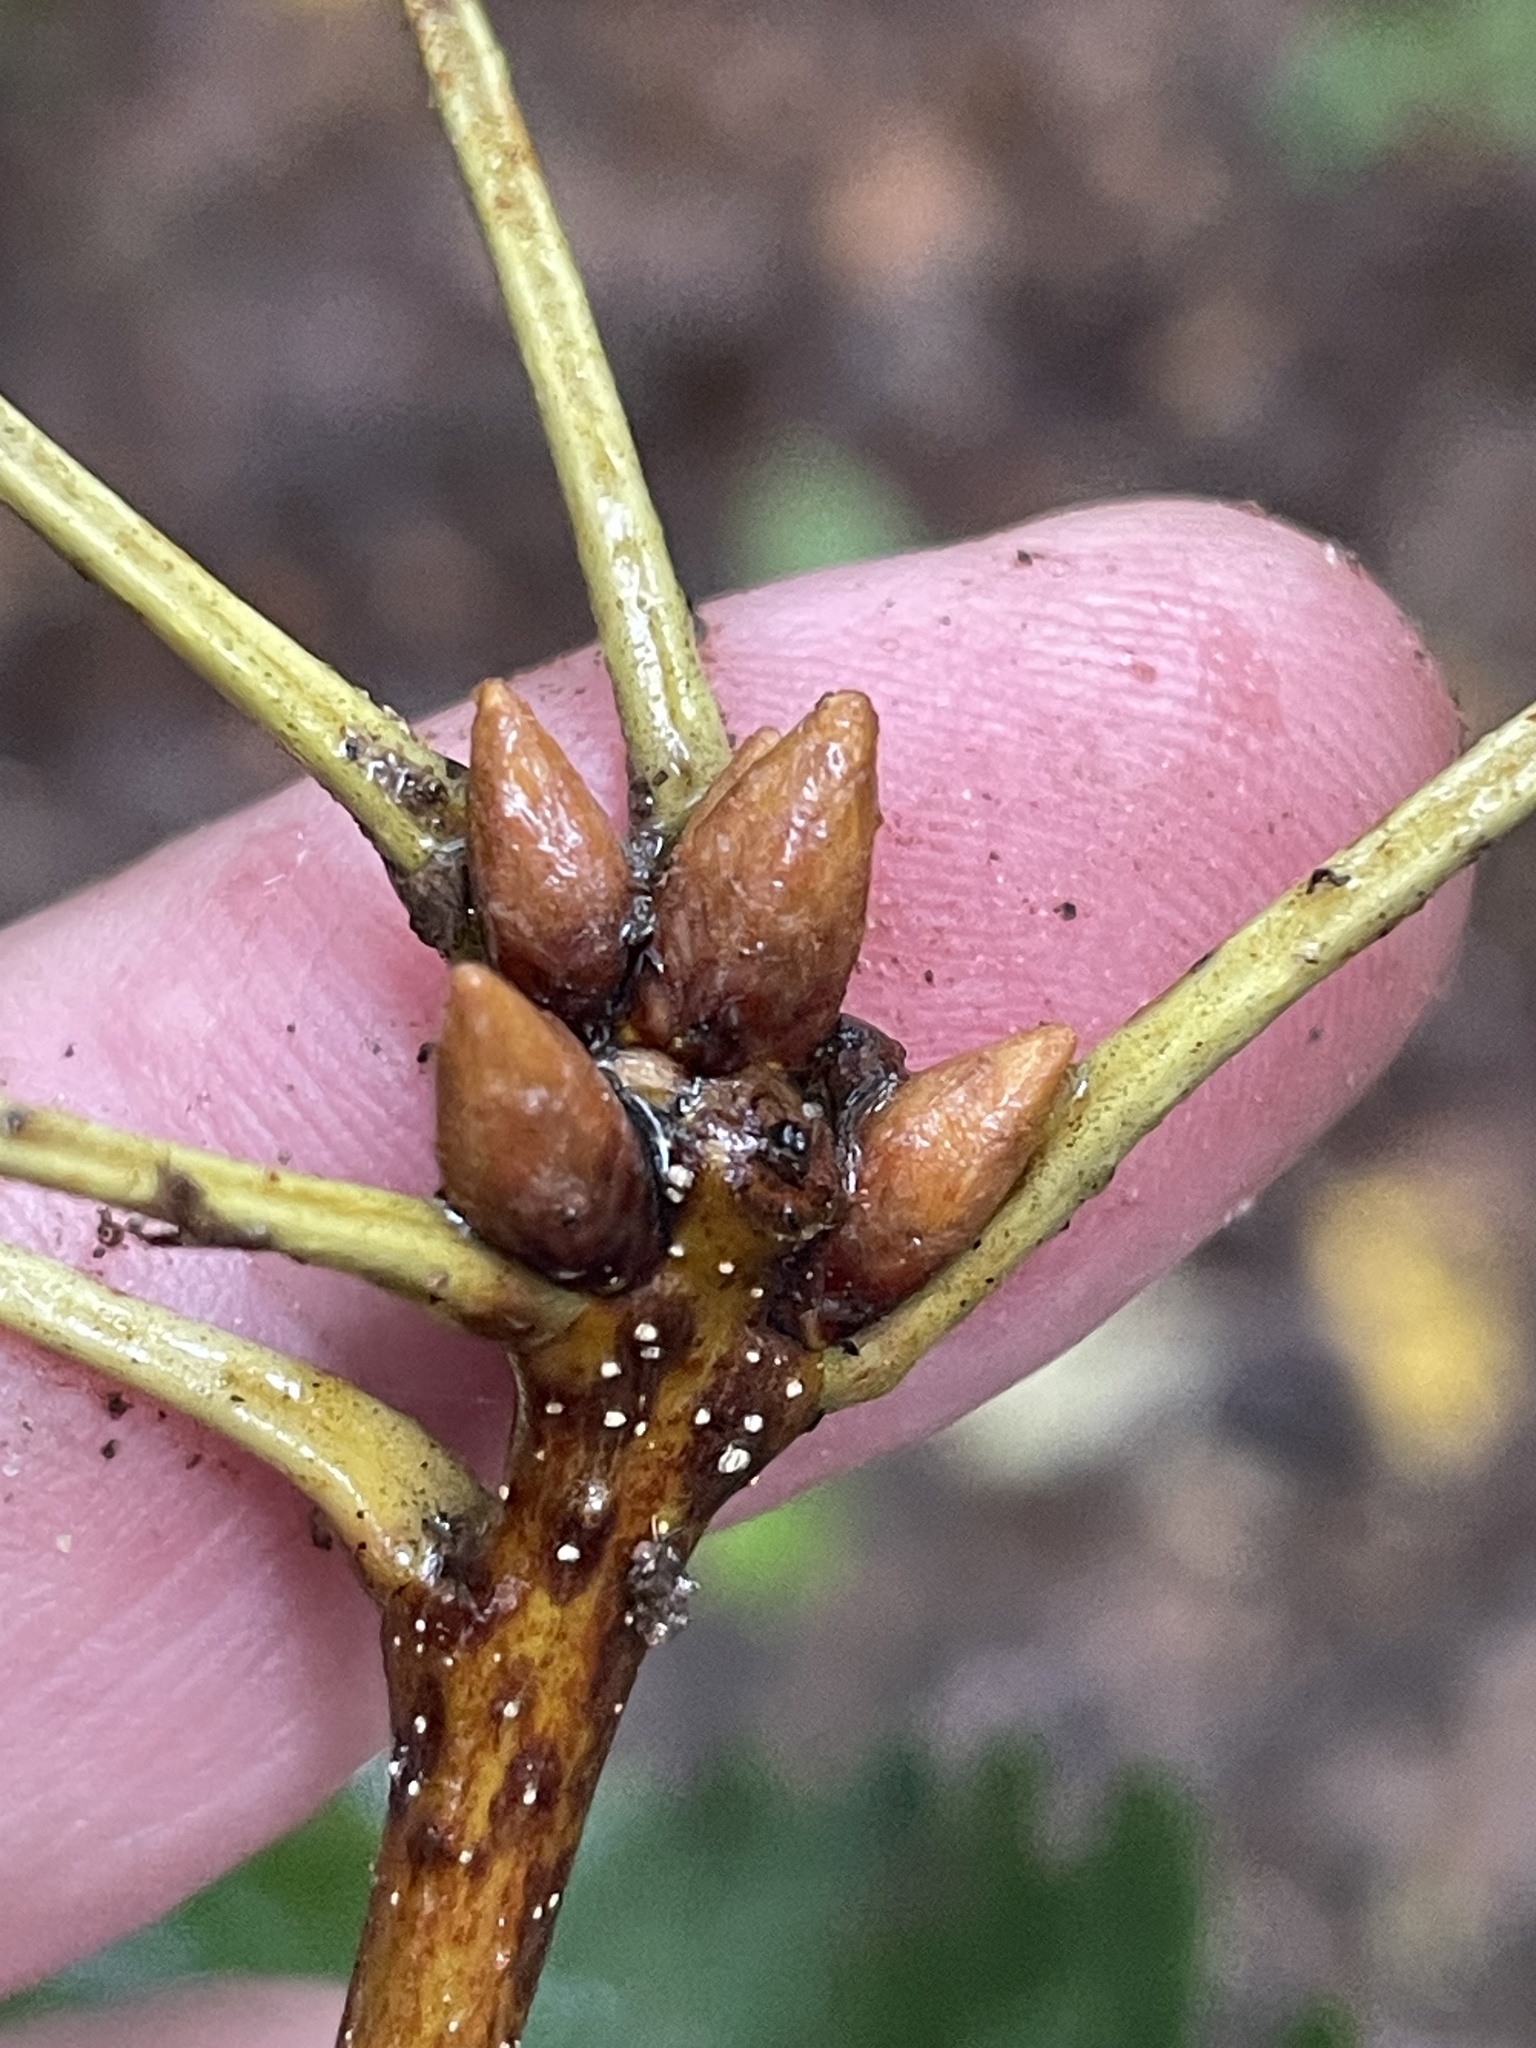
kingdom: Plantae
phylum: Tracheophyta
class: Magnoliopsida
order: Fagales
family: Fagaceae
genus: Quercus
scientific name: Quercus montana
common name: Chestnut oak
